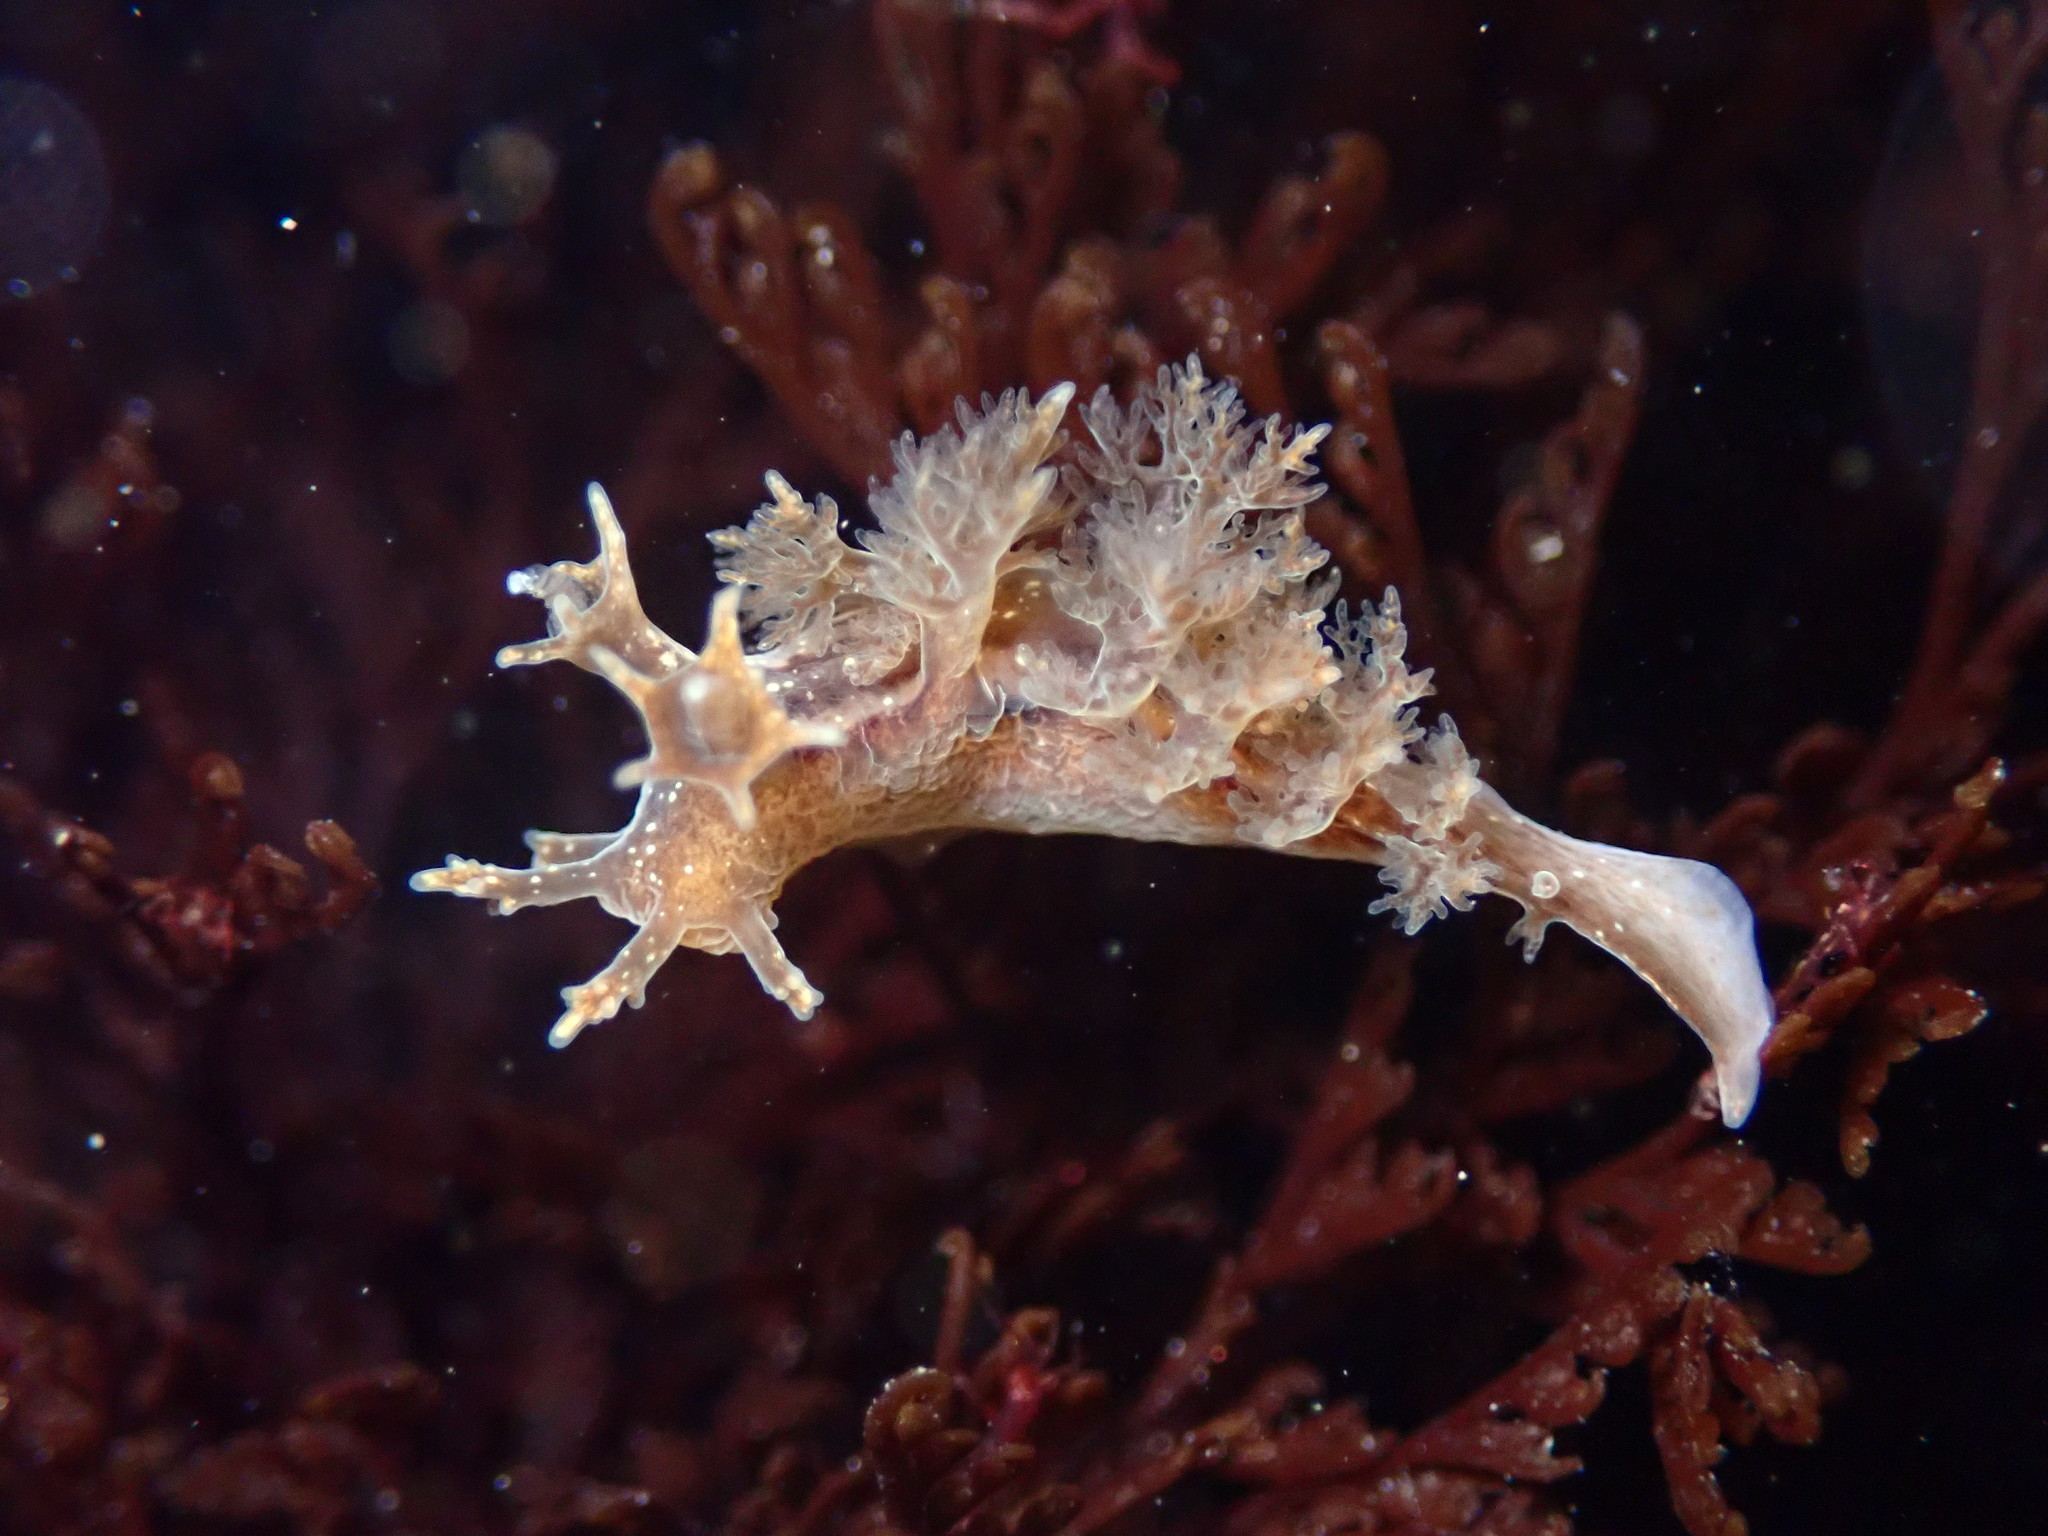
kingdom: Animalia
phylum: Mollusca
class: Gastropoda
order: Nudibranchia
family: Dendronotidae
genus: Dendronotus
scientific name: Dendronotus subramosus
